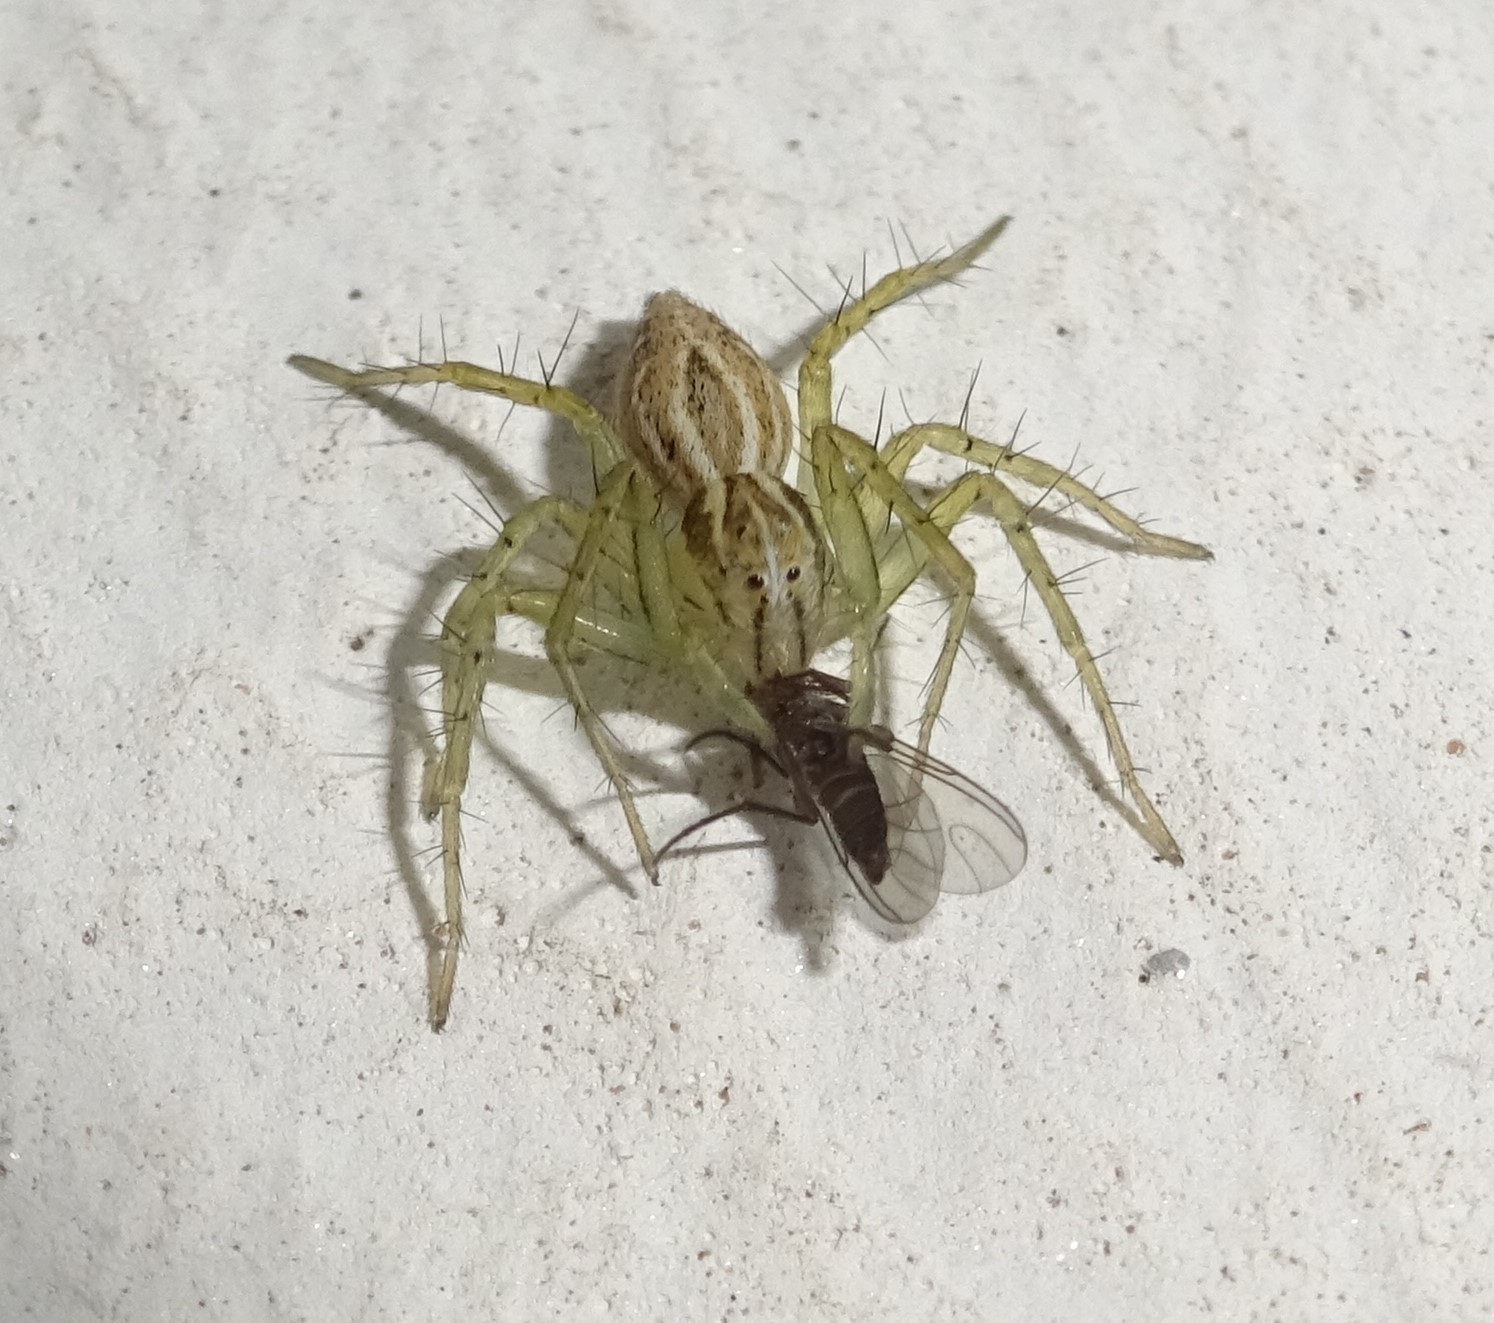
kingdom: Animalia
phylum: Arthropoda
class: Arachnida
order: Araneae
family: Oxyopidae
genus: Oxyopes
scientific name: Oxyopes lineatus
